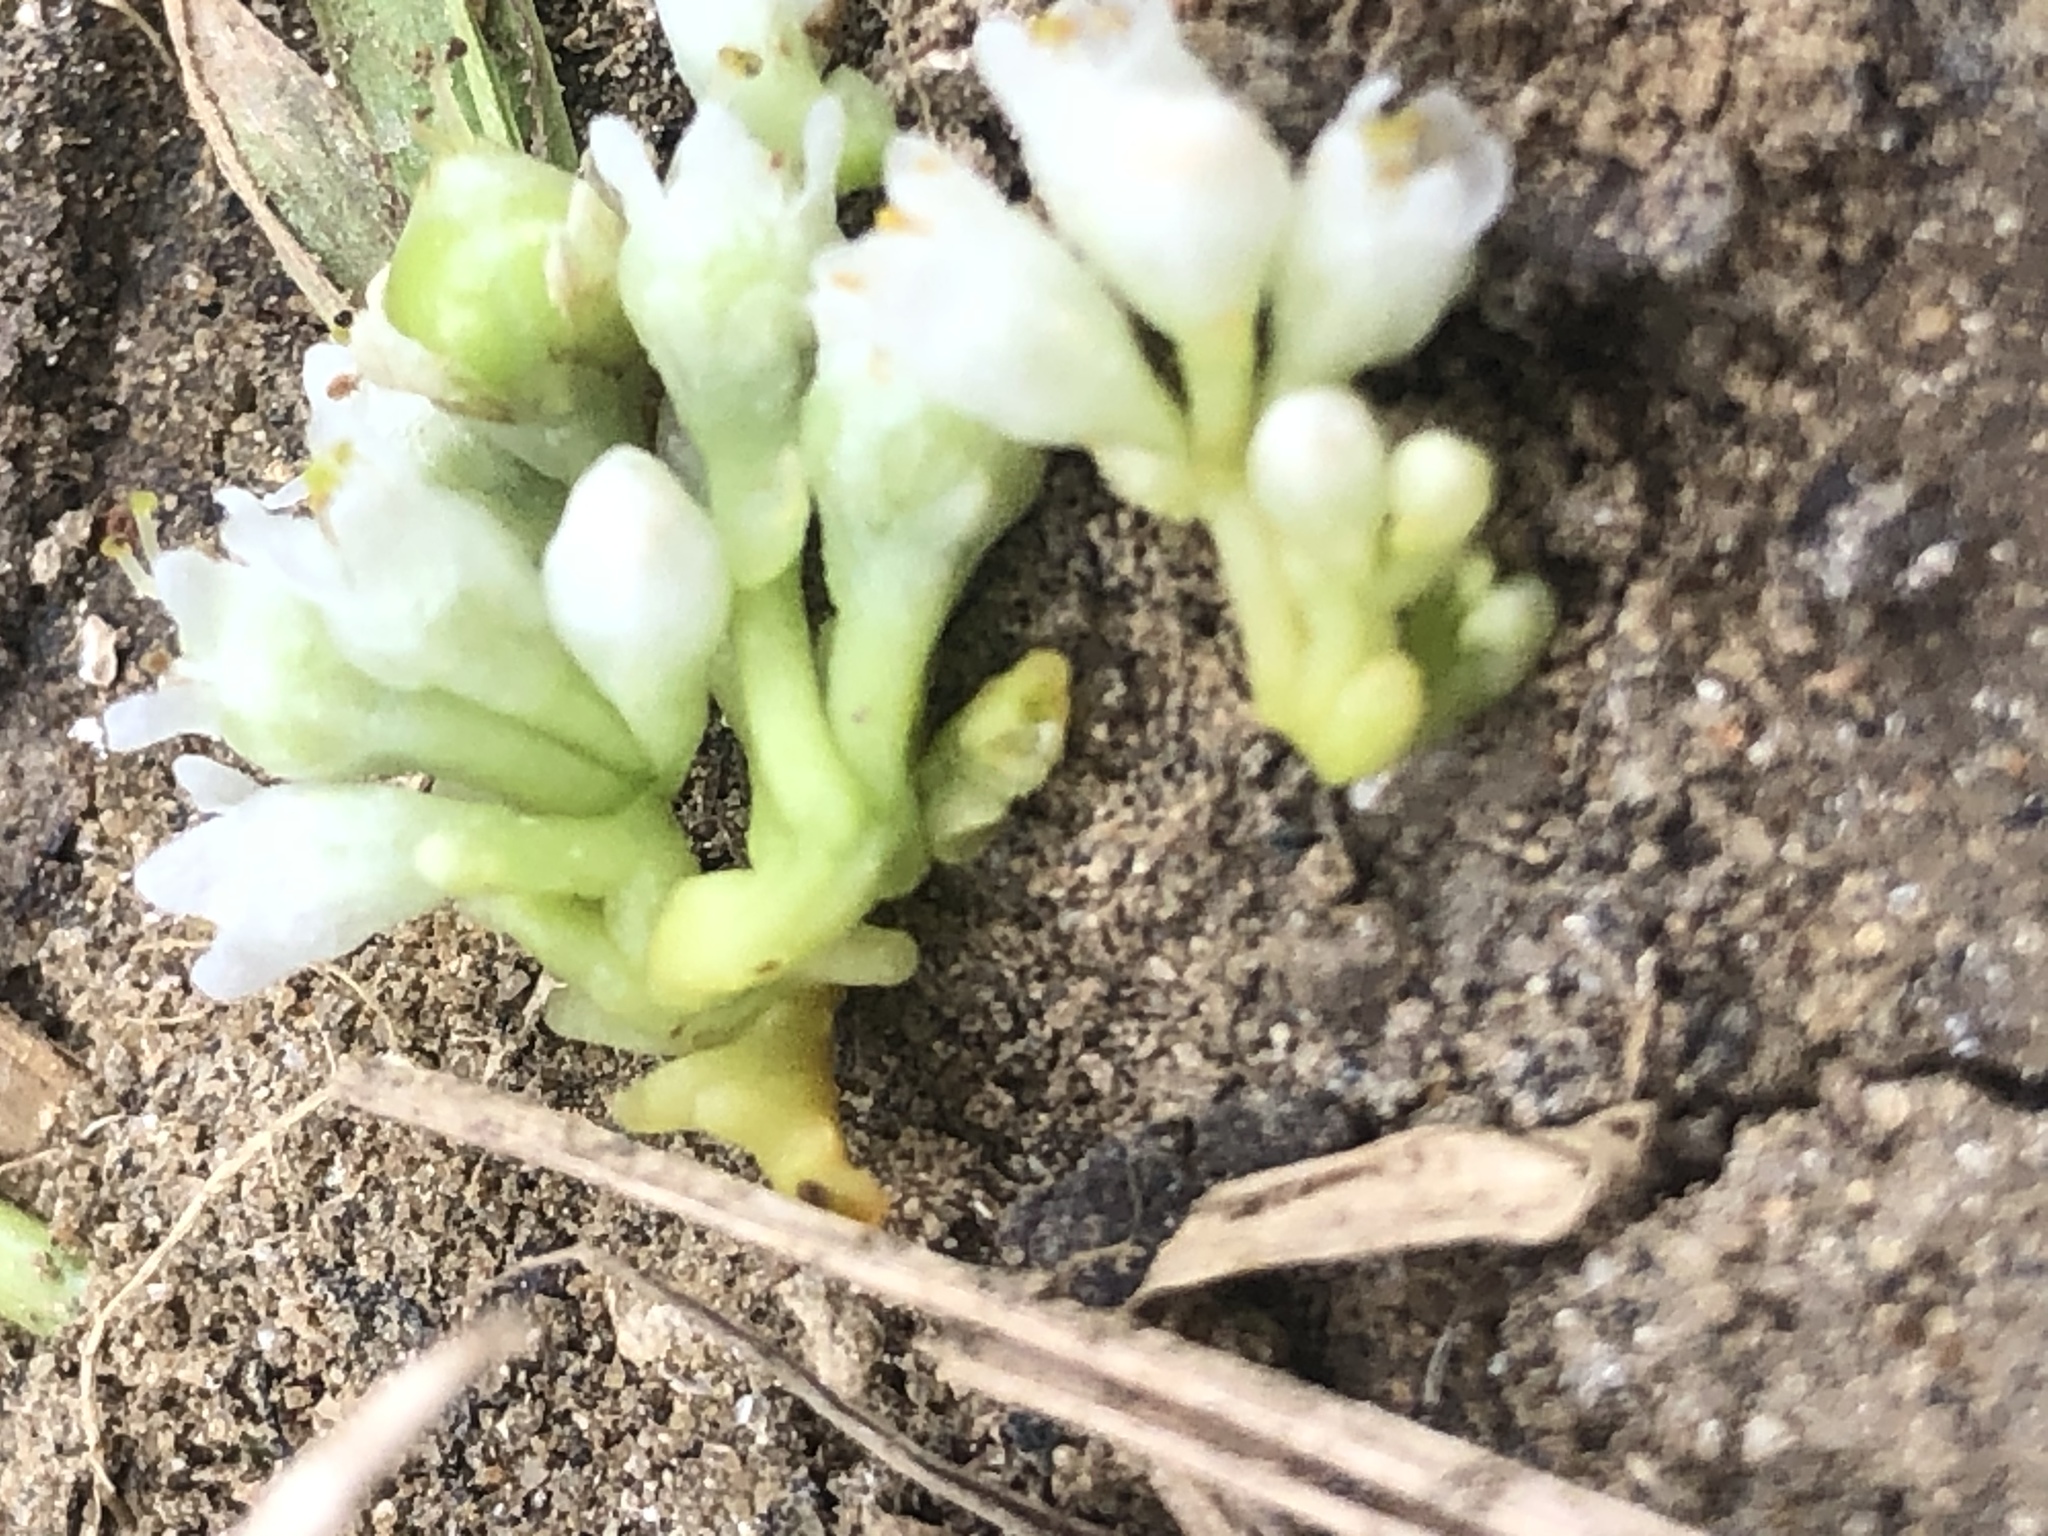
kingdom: Plantae
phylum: Tracheophyta
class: Magnoliopsida
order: Solanales
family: Convolvulaceae
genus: Cuscuta
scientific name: Cuscuta gronovii
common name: Common dodder
